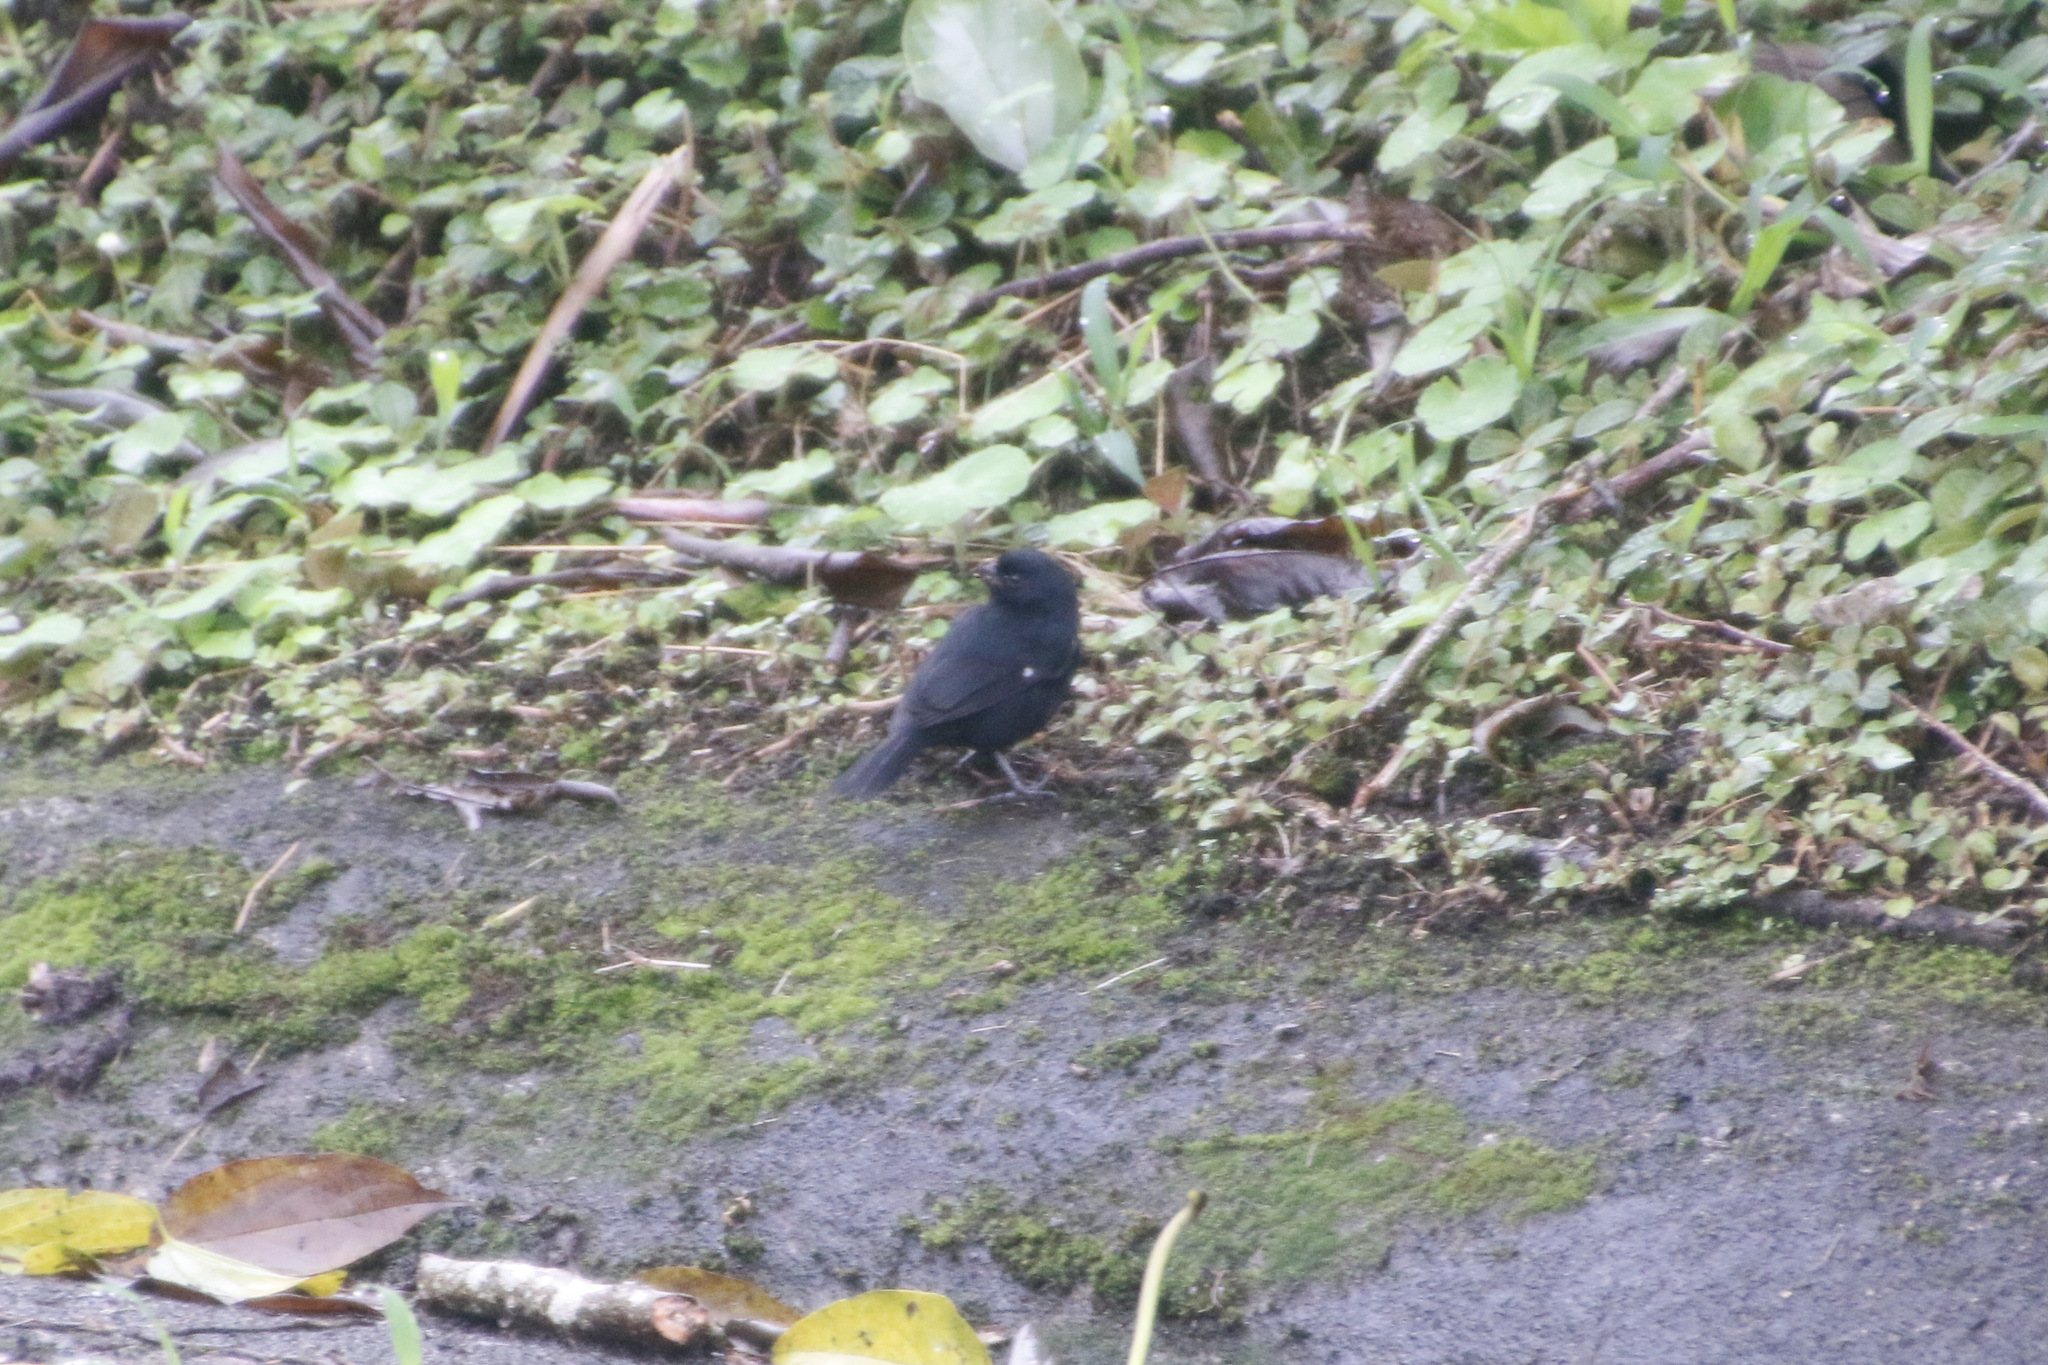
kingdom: Animalia
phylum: Chordata
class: Aves
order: Passeriformes
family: Thraupidae
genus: Sporophila
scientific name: Sporophila corvina
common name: Variable seedeater
